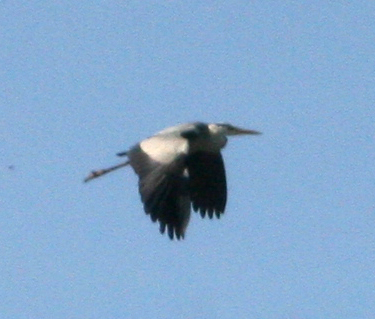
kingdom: Animalia
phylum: Chordata
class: Aves
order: Pelecaniformes
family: Ardeidae
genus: Ardea
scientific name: Ardea cinerea
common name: Grey heron
